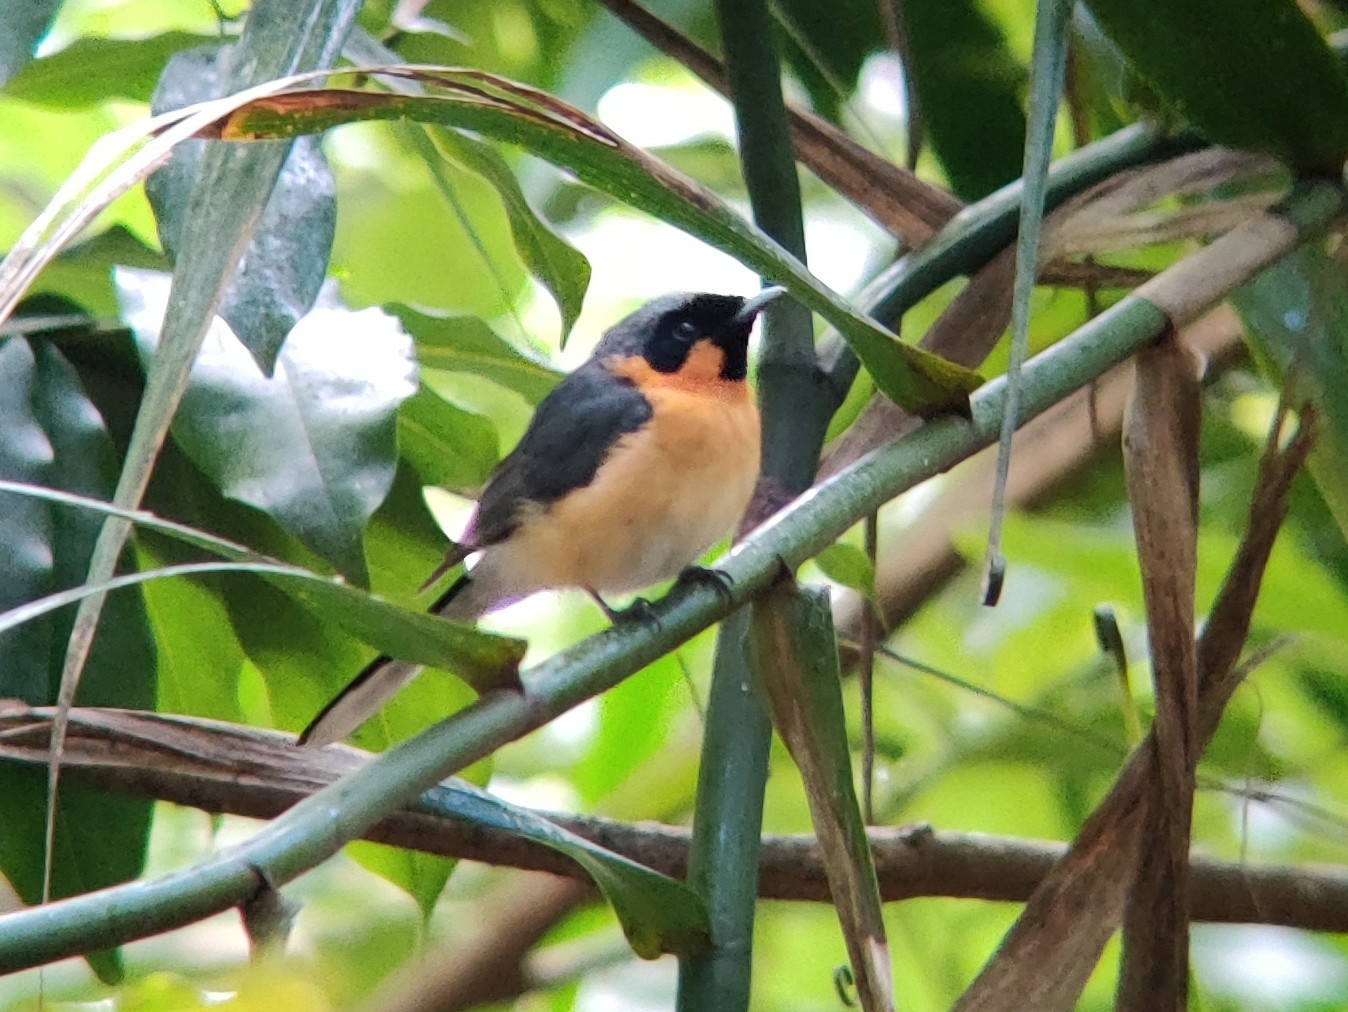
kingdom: Animalia
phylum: Chordata
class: Aves
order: Passeriformes
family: Monarchidae
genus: Symposiachrus
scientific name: Symposiachrus trivirgatus
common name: Spectacled monarch
